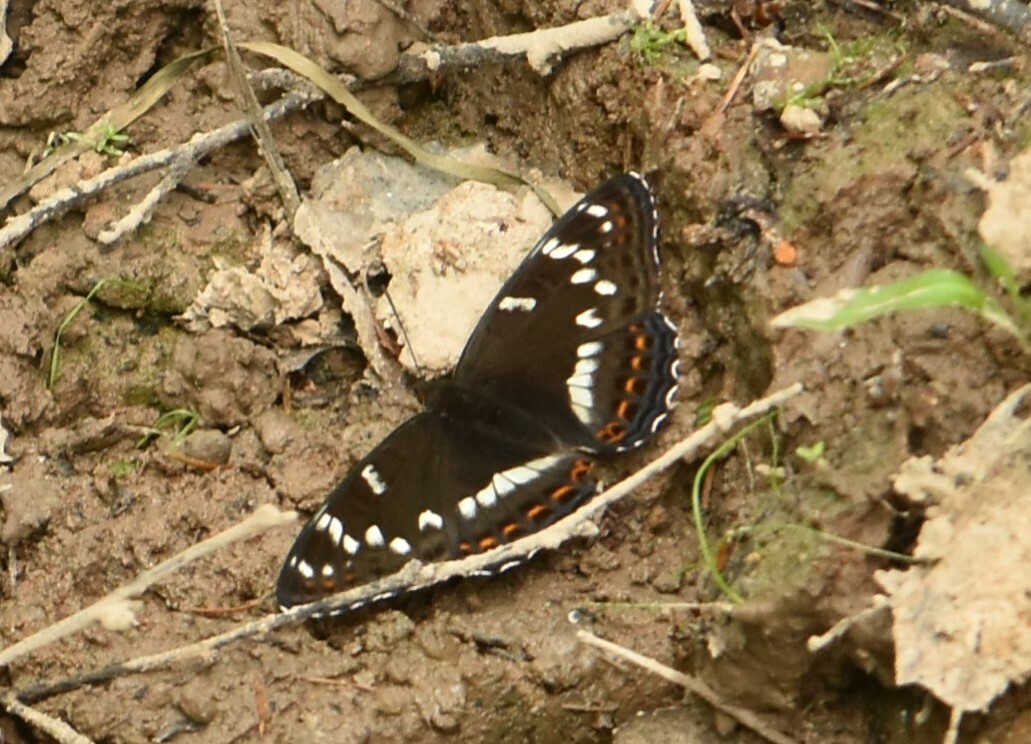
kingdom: Animalia
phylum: Arthropoda
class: Insecta
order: Lepidoptera
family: Nymphalidae
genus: Limenitis
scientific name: Limenitis populi
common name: Poplar admiral
